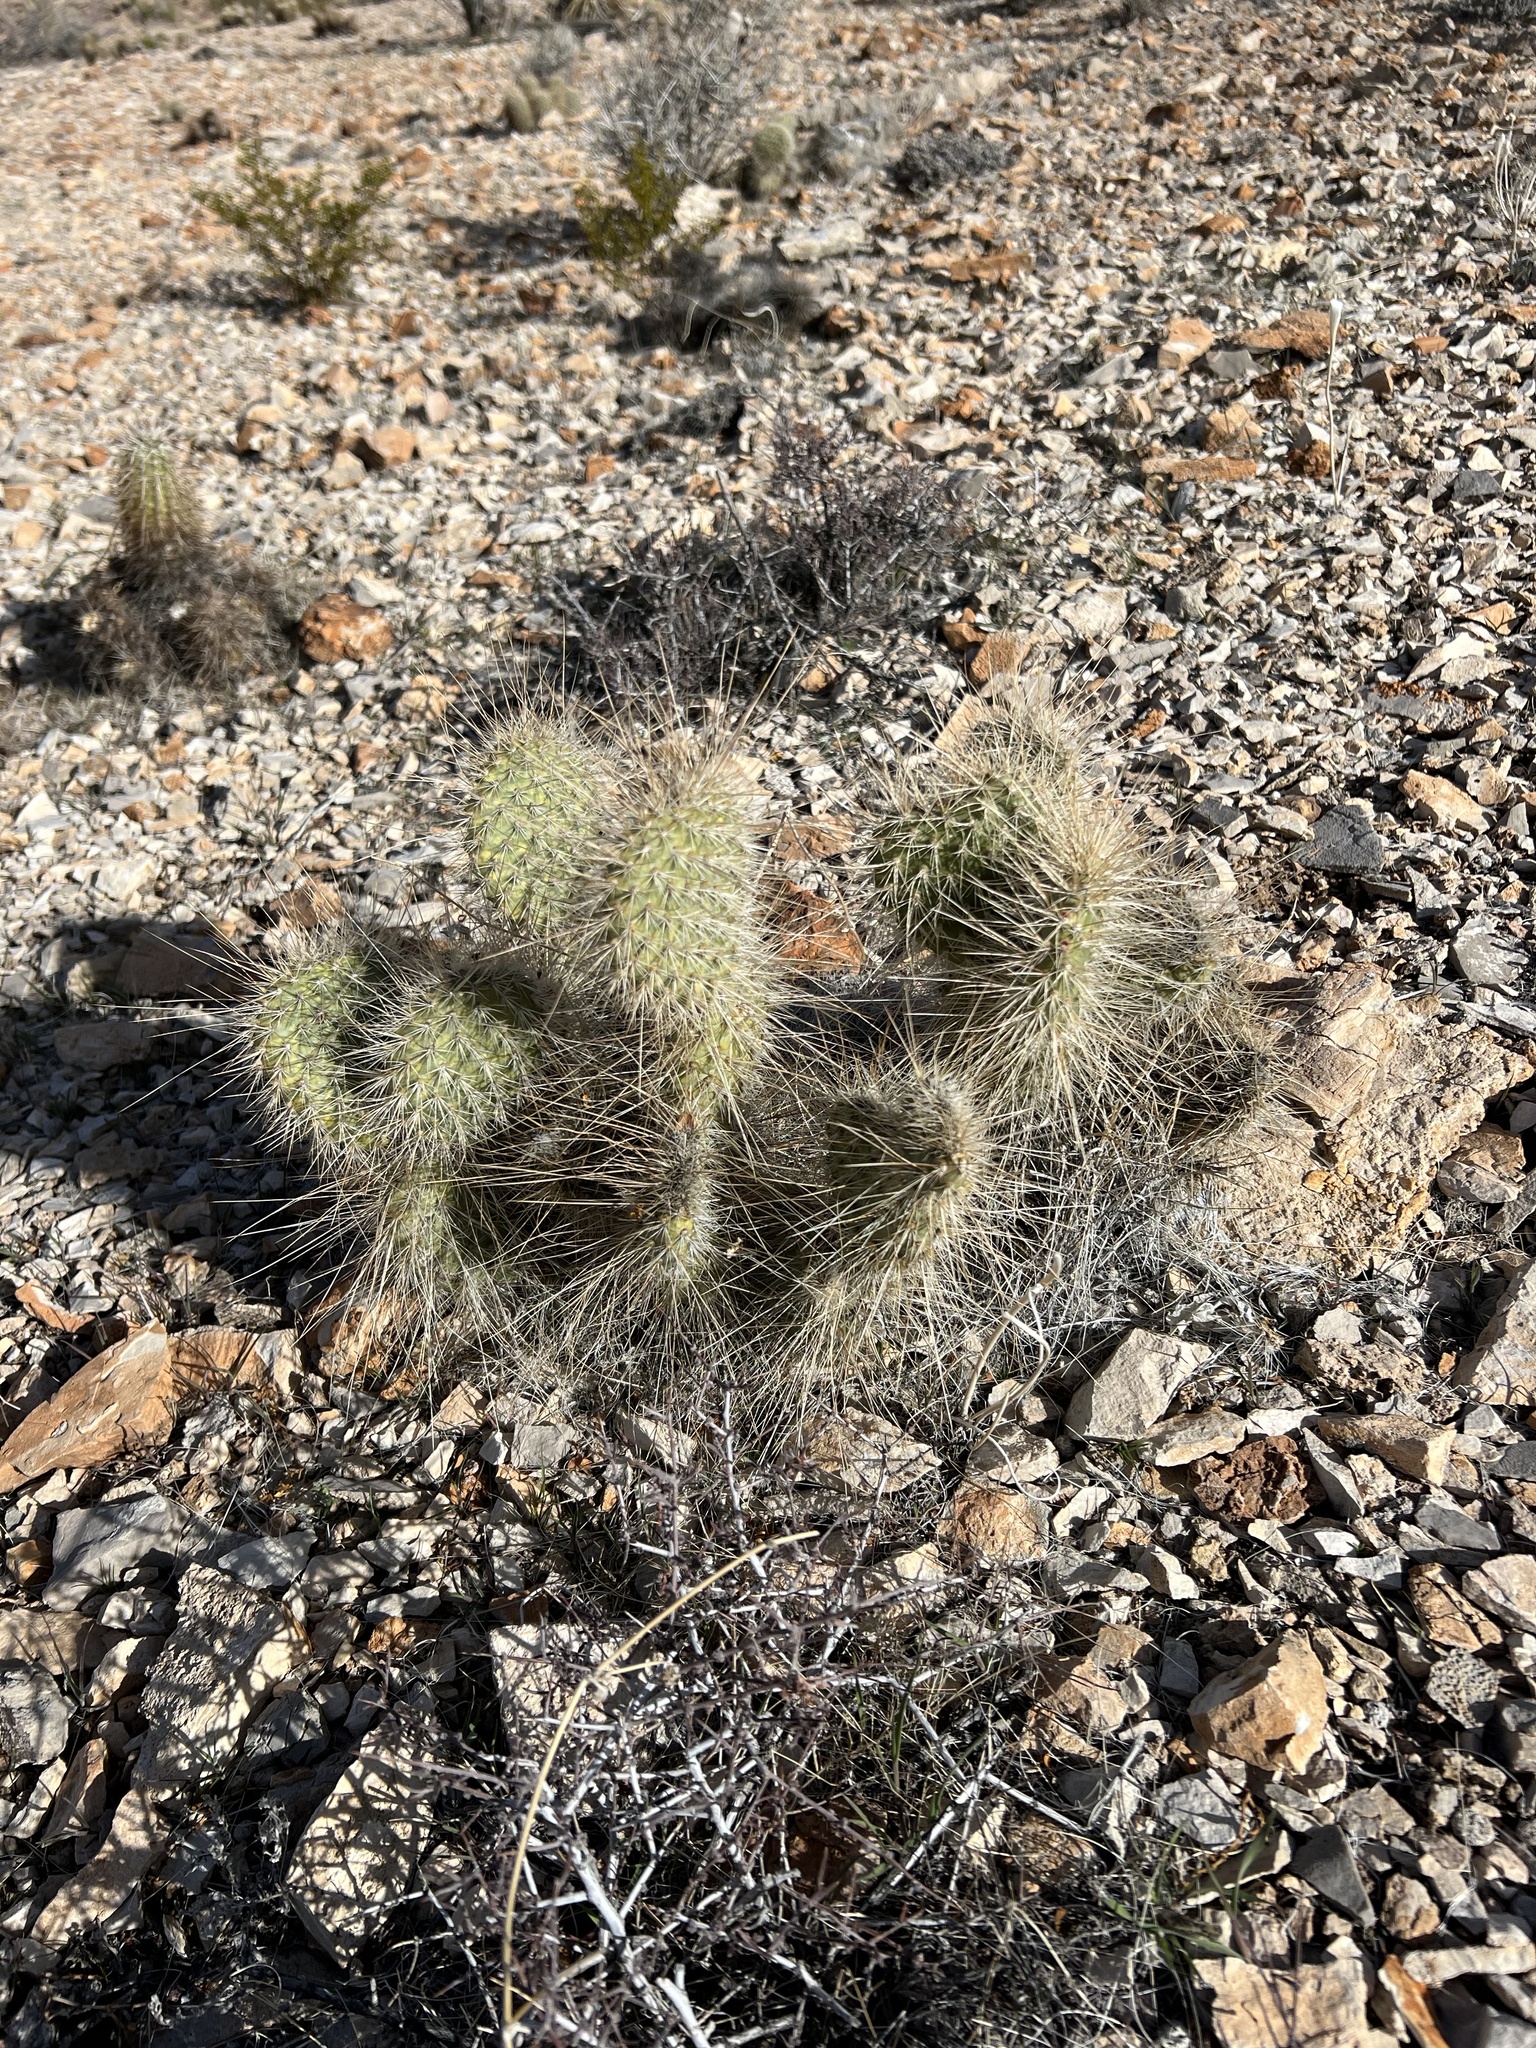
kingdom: Plantae
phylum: Tracheophyta
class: Magnoliopsida
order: Caryophyllales
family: Cactaceae
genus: Opuntia
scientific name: Opuntia polyacantha
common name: Plains prickly-pear
